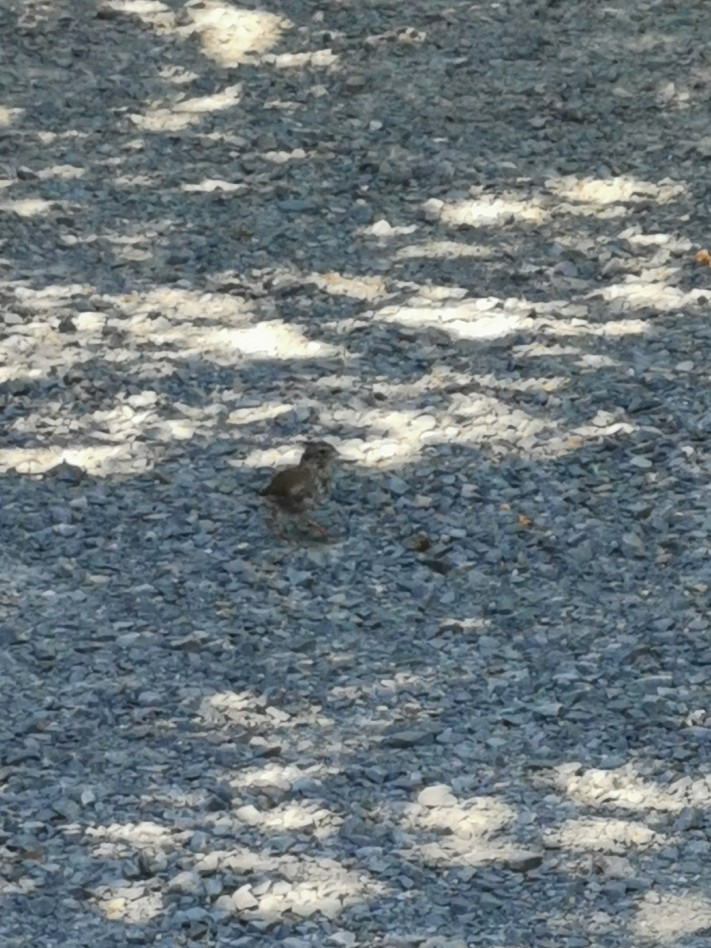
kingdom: Animalia
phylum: Chordata
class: Aves
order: Passeriformes
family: Passerellidae
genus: Melospiza
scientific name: Melospiza melodia
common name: Song sparrow
